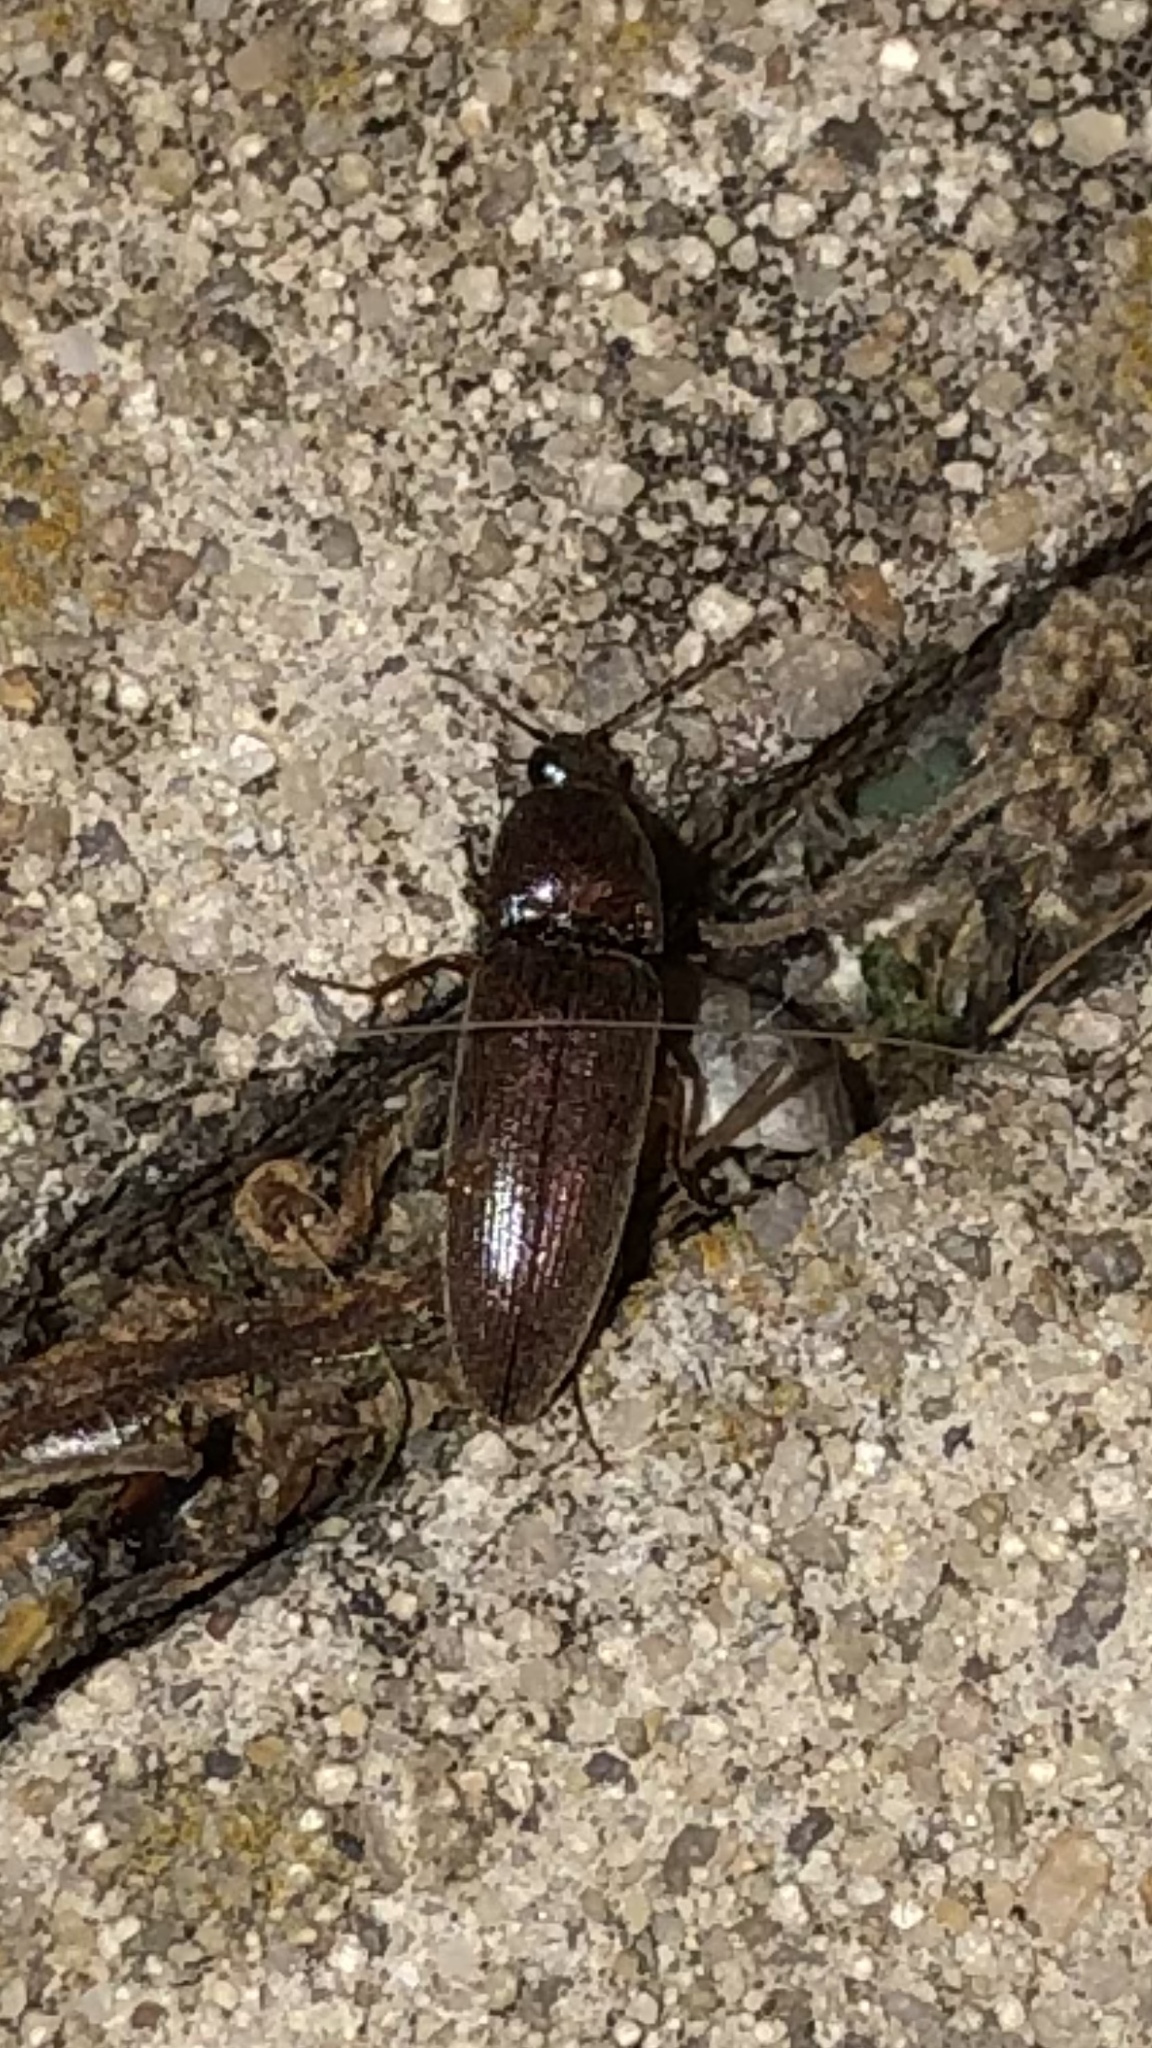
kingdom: Animalia
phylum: Arthropoda
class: Insecta
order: Coleoptera
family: Elateridae
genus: Melanotus
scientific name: Melanotus
